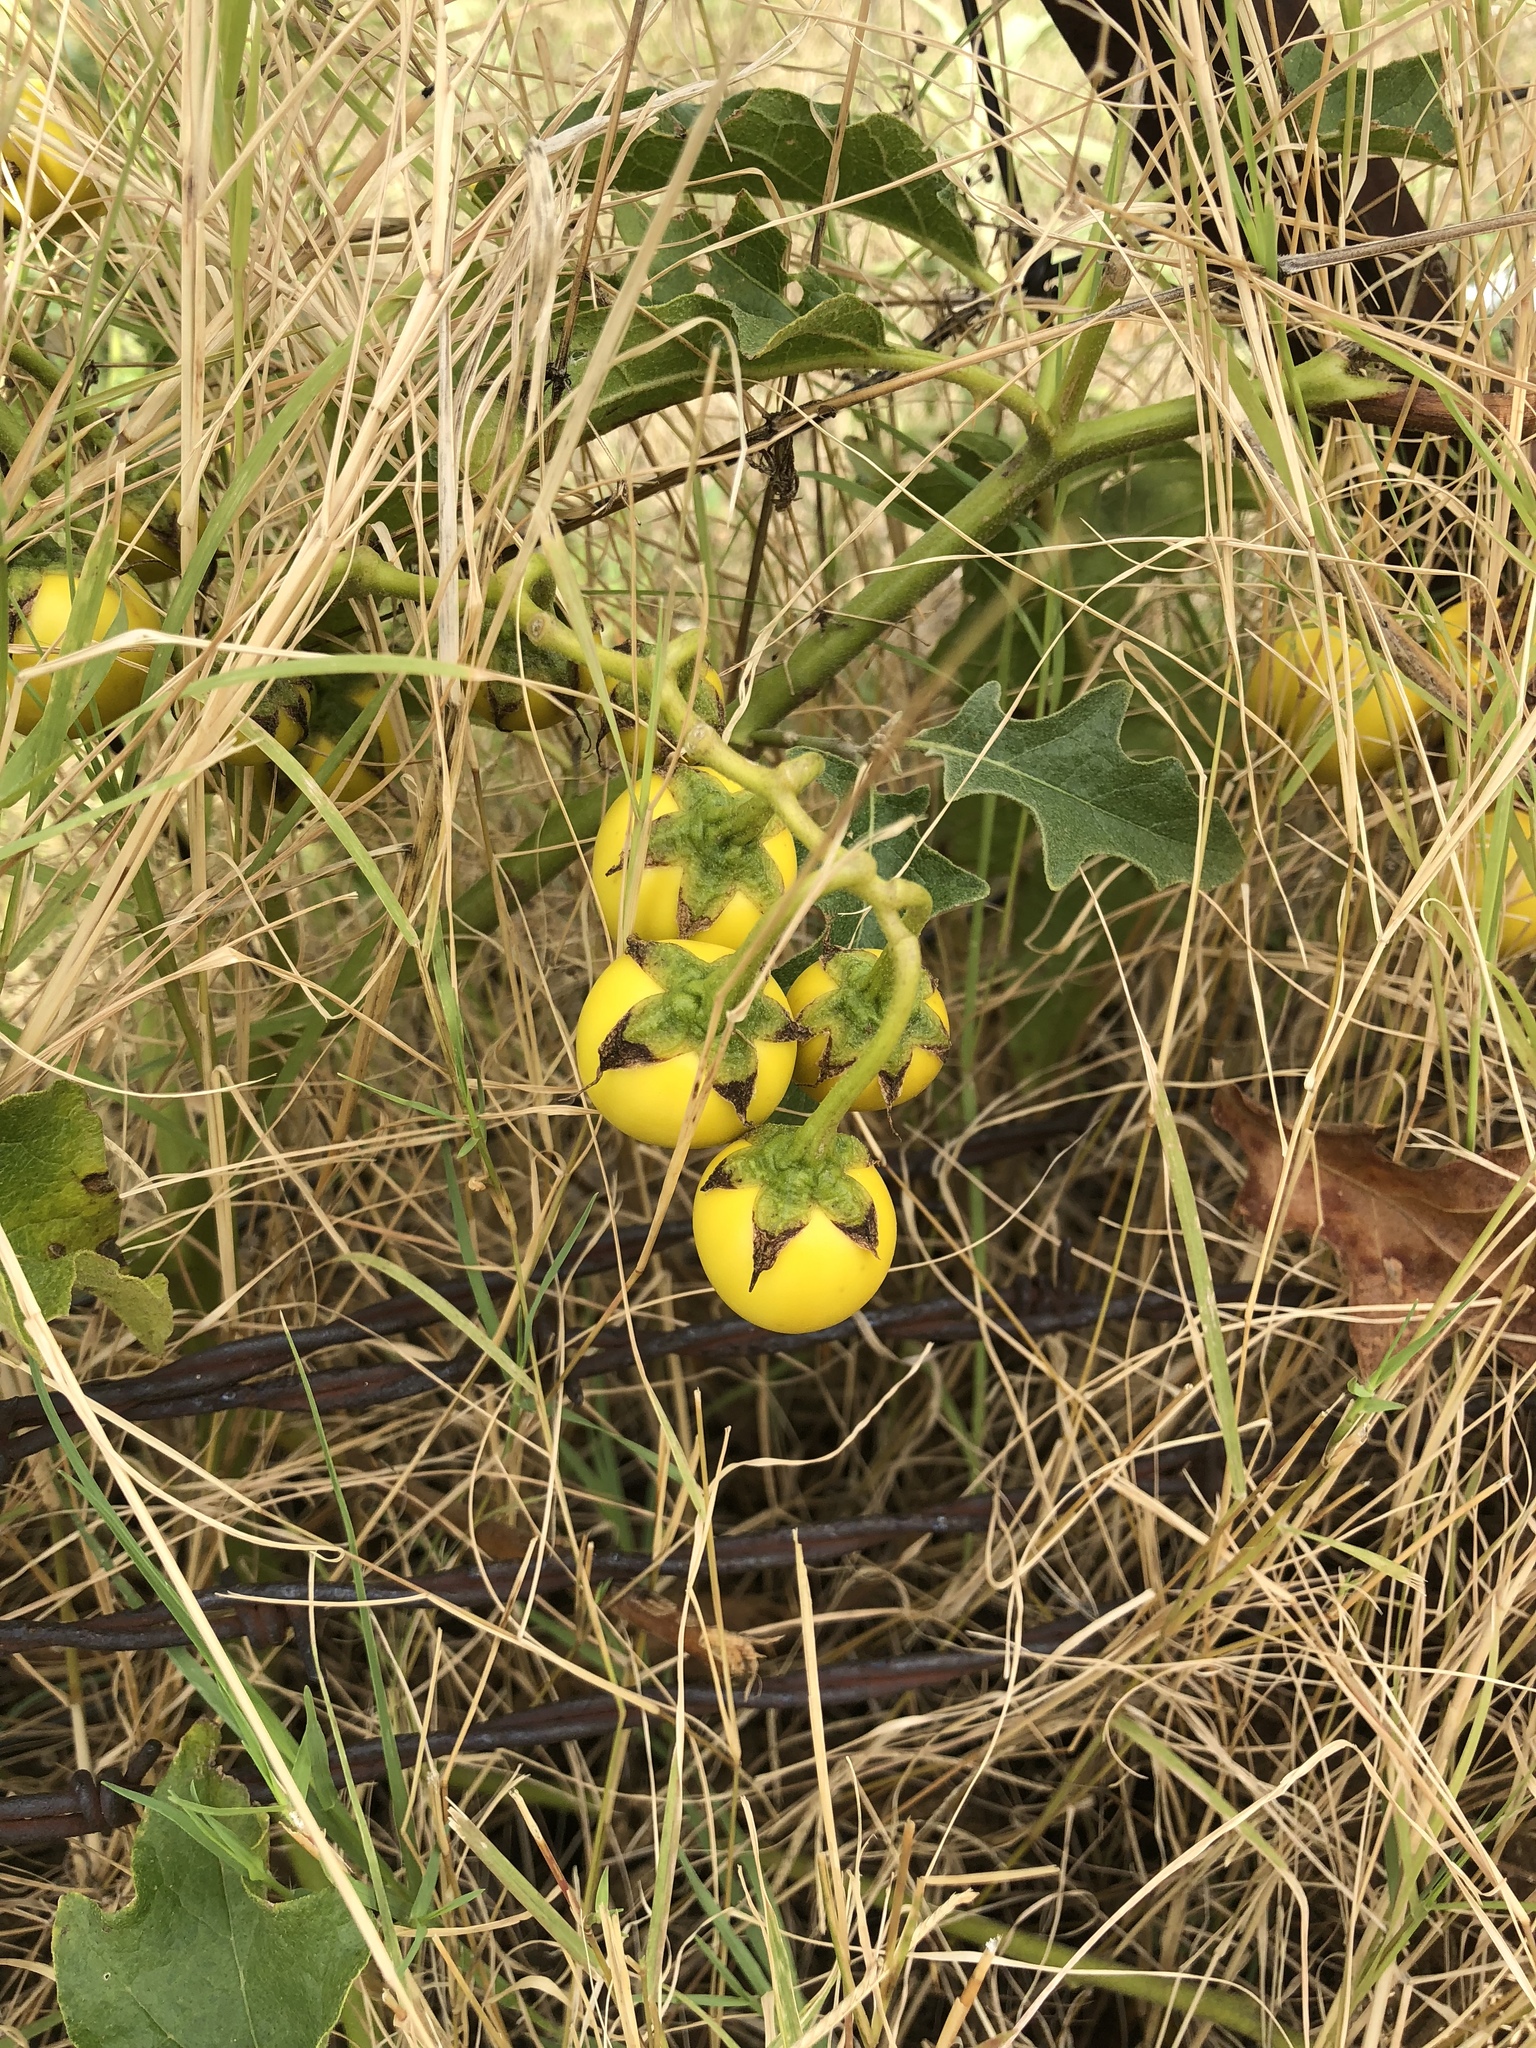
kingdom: Plantae
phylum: Tracheophyta
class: Magnoliopsida
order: Solanales
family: Solanaceae
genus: Solanum
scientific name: Solanum dimidiatum
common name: Carolina horse-nettle
